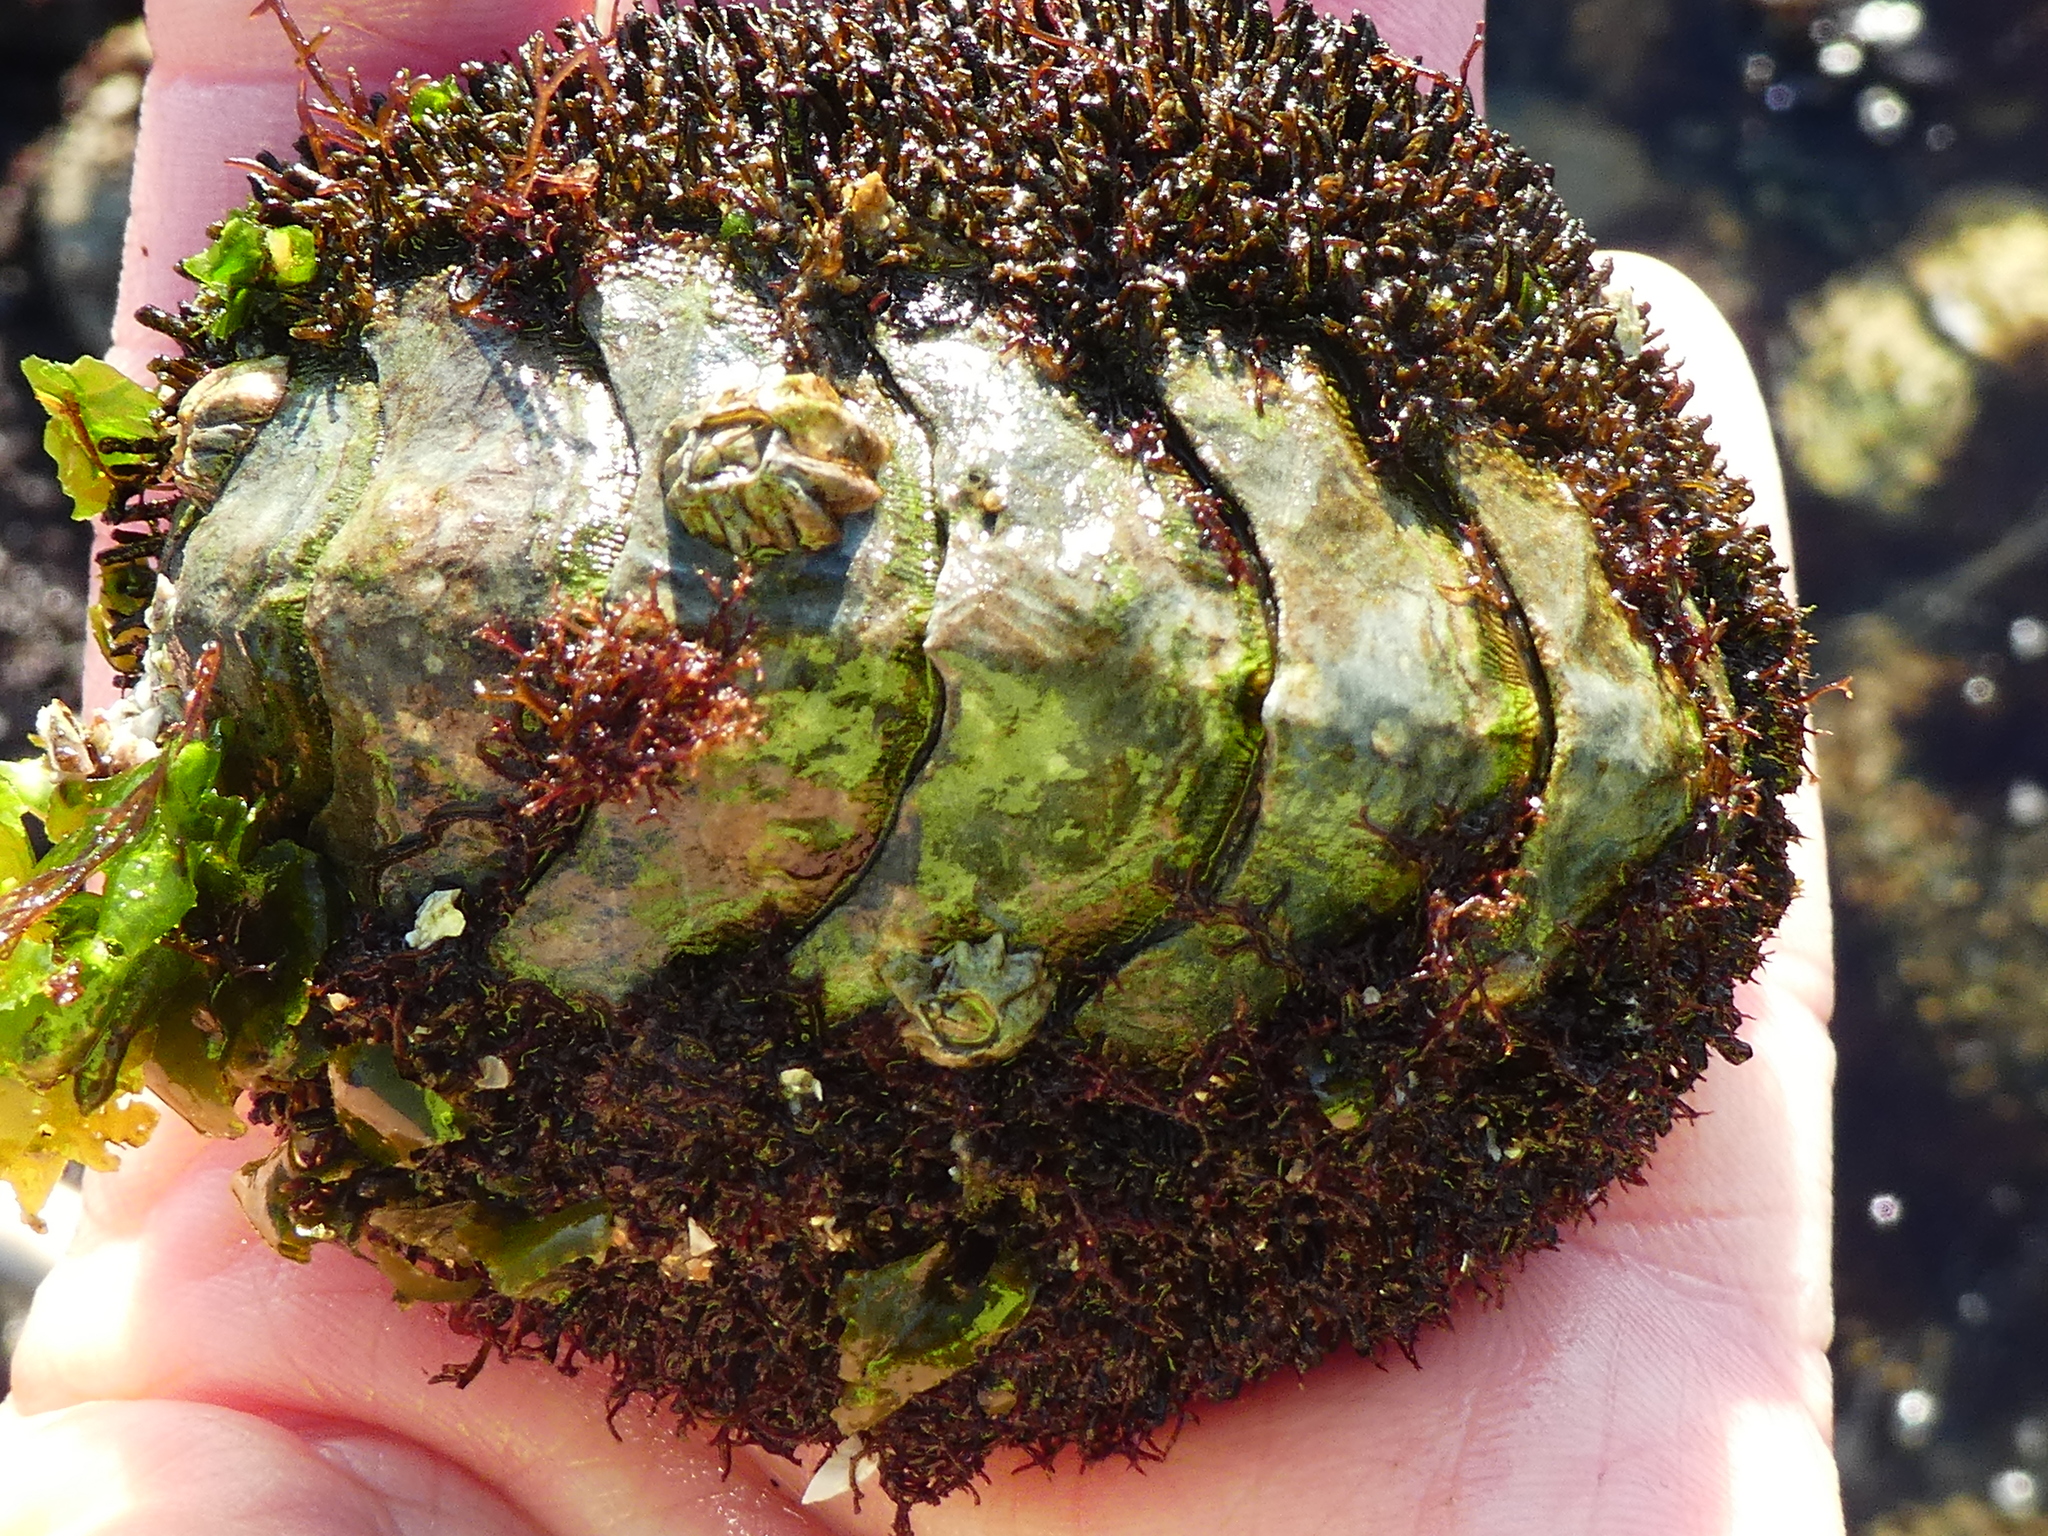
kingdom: Animalia
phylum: Mollusca
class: Polyplacophora
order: Chitonida
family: Mopaliidae
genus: Mopalia
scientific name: Mopalia muscosa
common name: Mossy chiton
